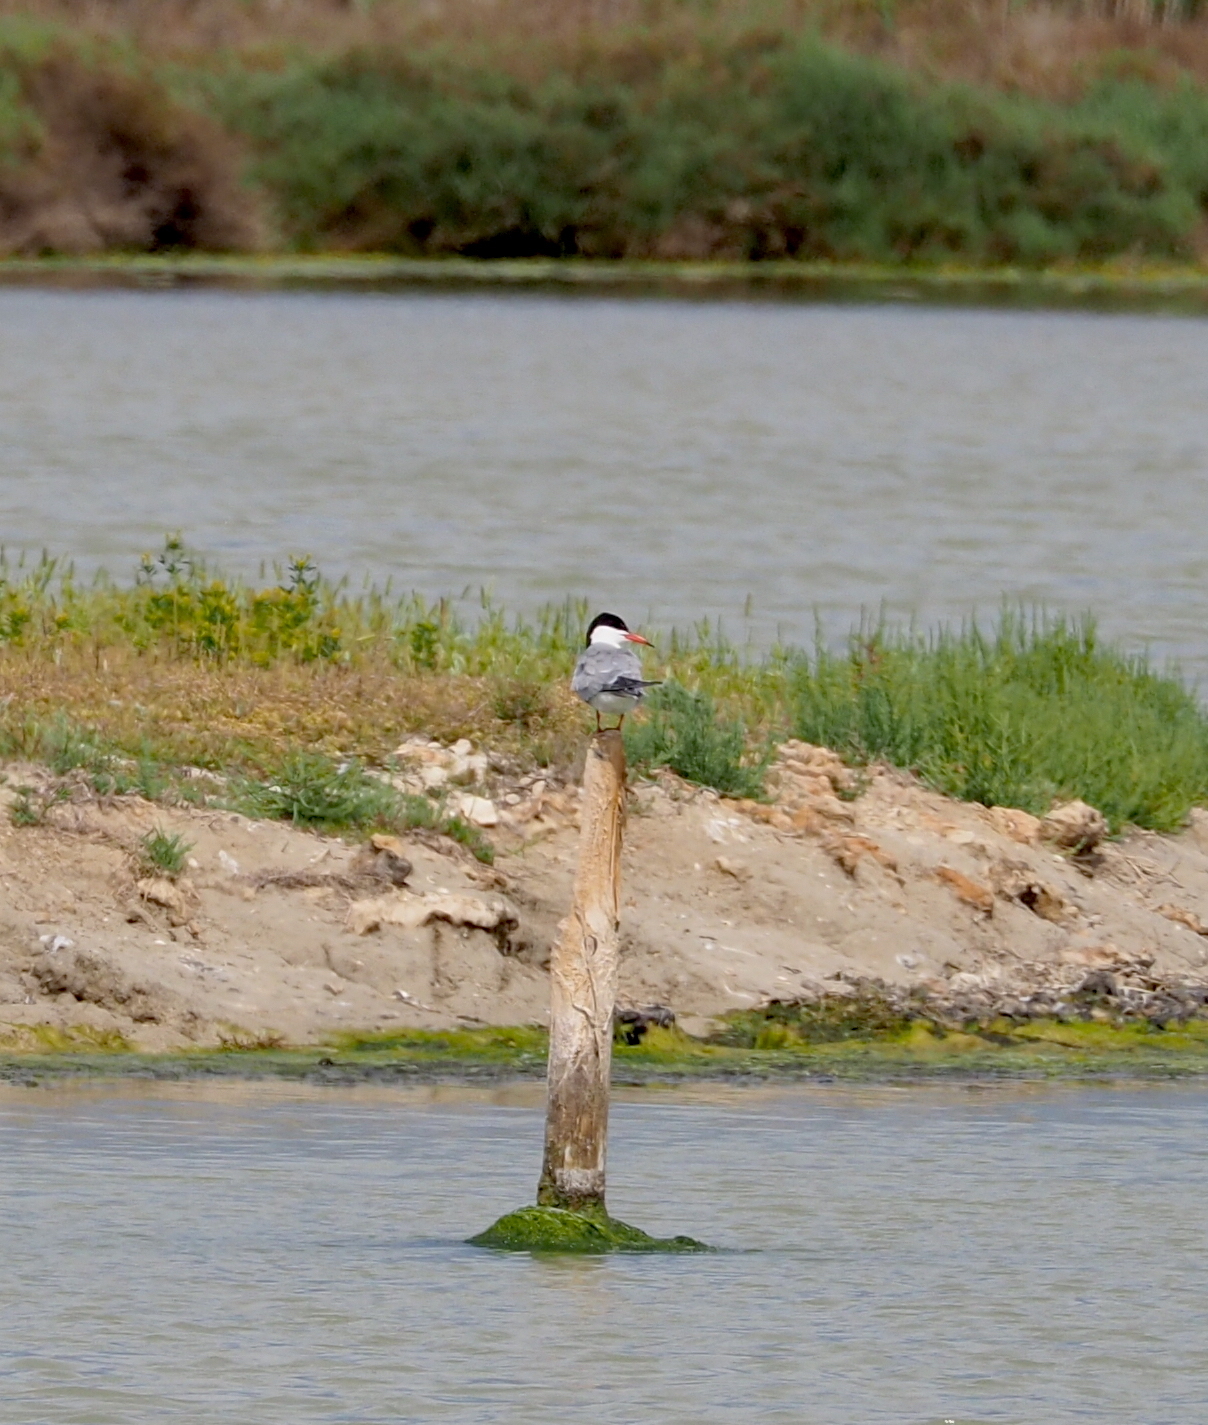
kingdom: Animalia
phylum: Chordata
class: Aves
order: Charadriiformes
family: Laridae
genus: Sterna
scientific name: Sterna hirundo
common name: Common tern
